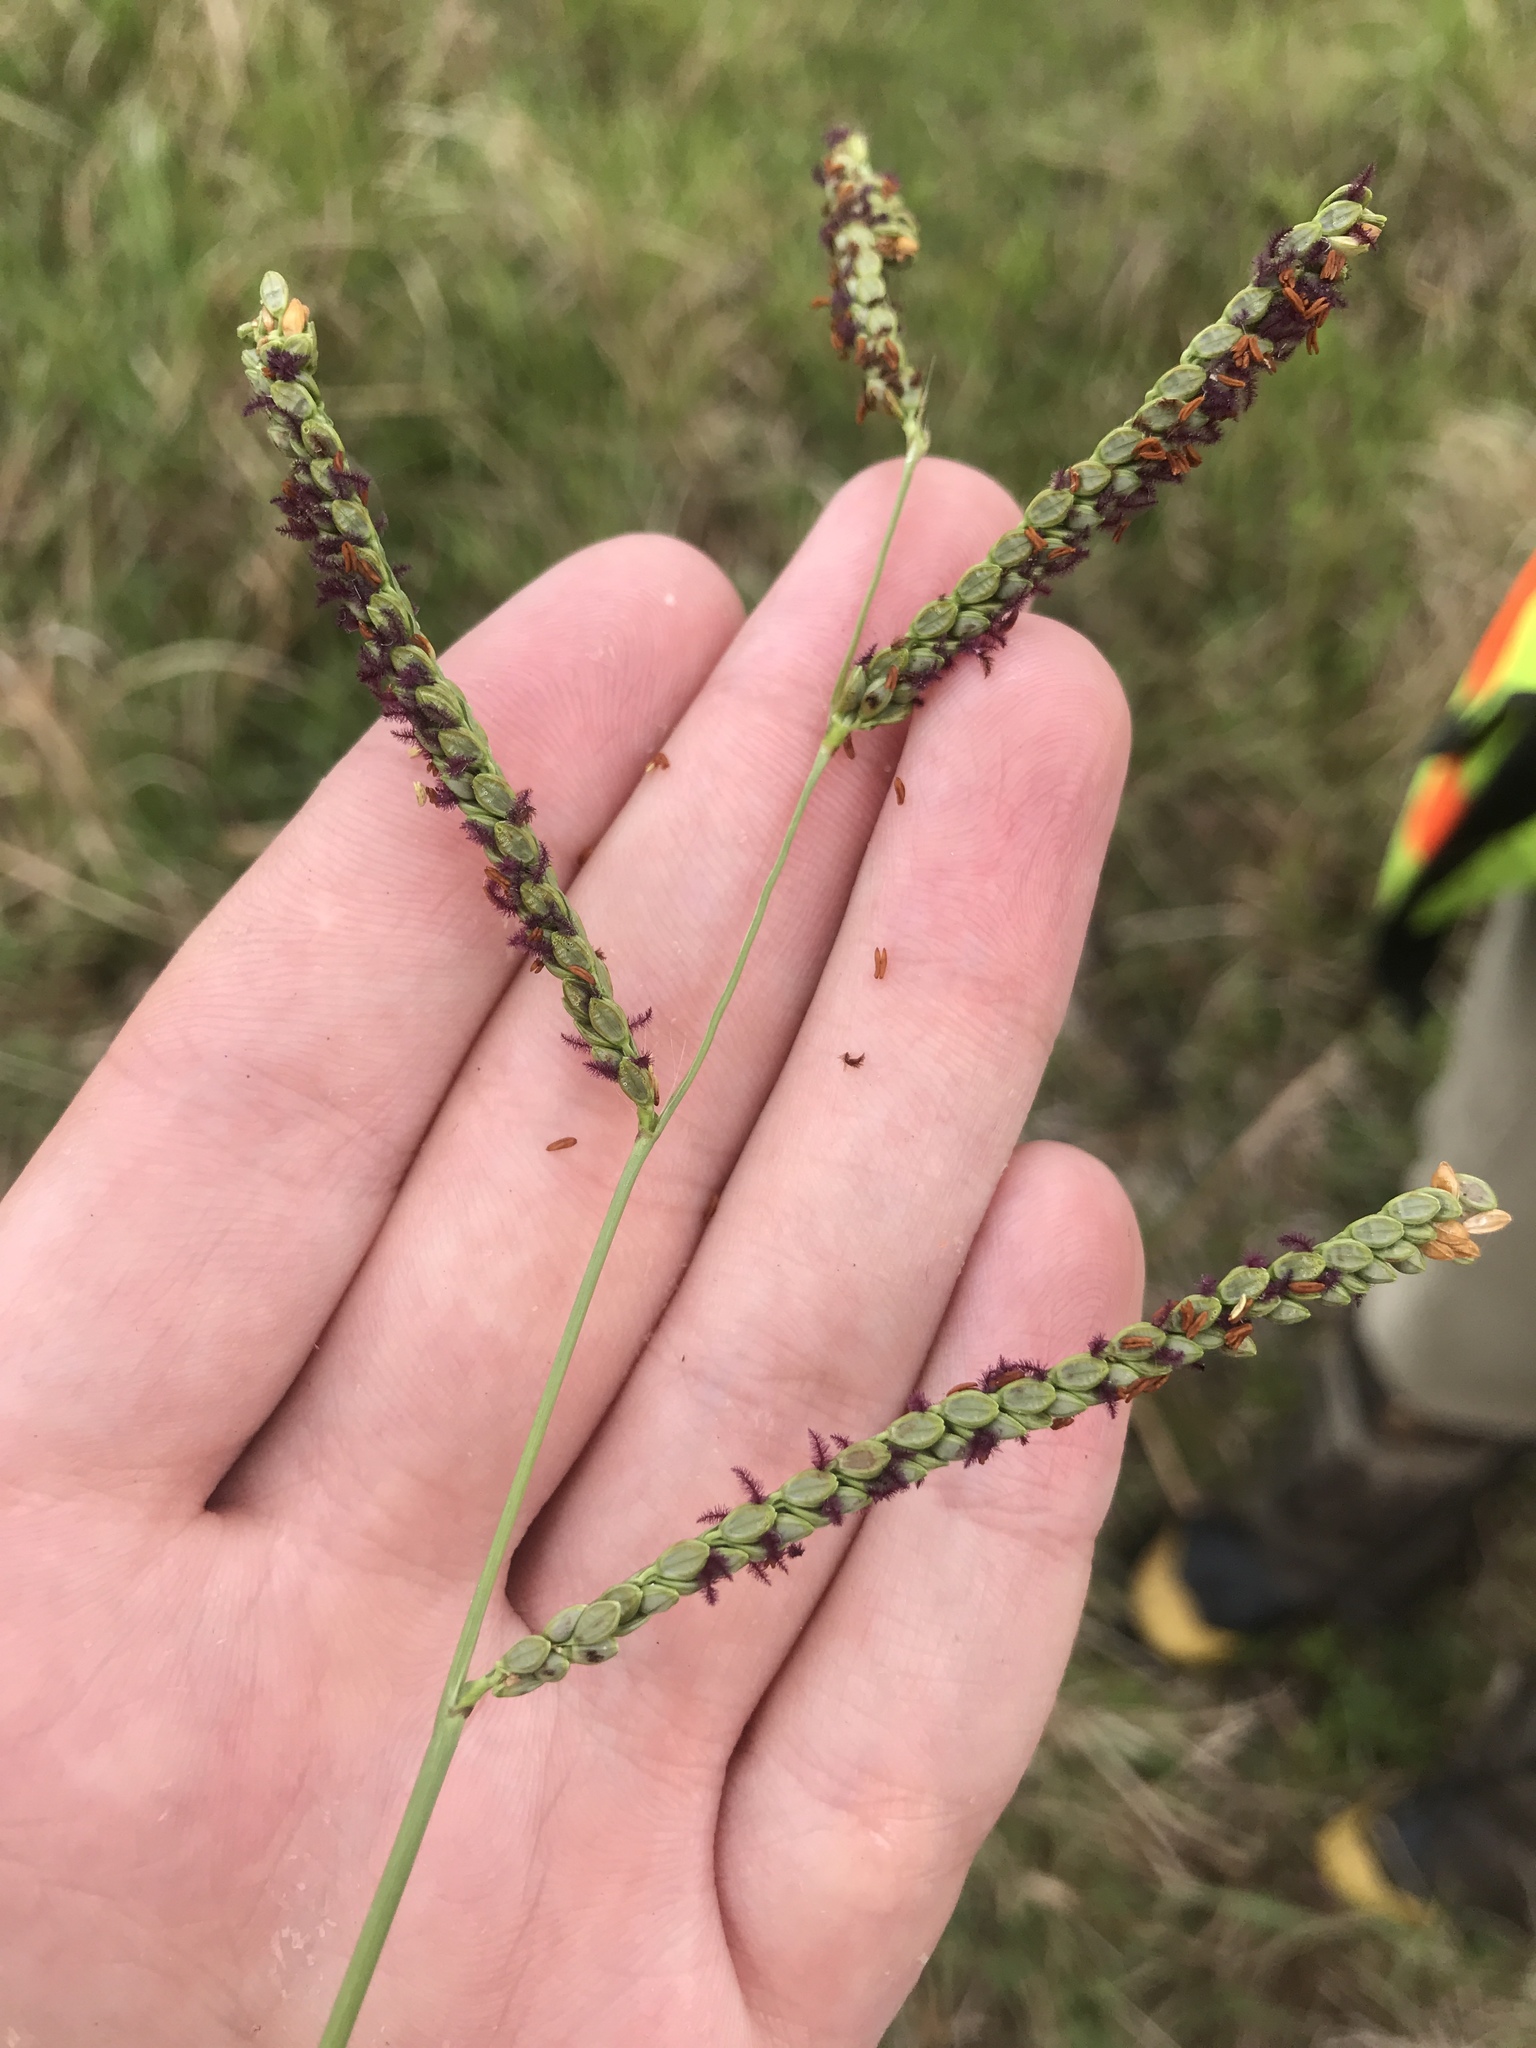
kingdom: Plantae
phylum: Tracheophyta
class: Liliopsida
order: Poales
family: Poaceae
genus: Paspalum
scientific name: Paspalum plicatulum
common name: Top paspalum
